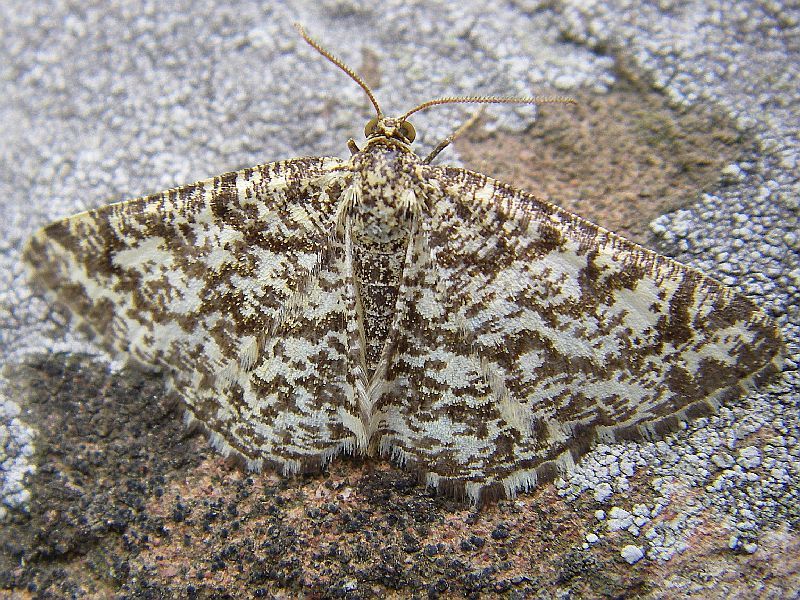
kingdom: Animalia
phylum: Arthropoda
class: Insecta
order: Lepidoptera
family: Geometridae
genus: Heliomata
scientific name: Heliomata glarearia
